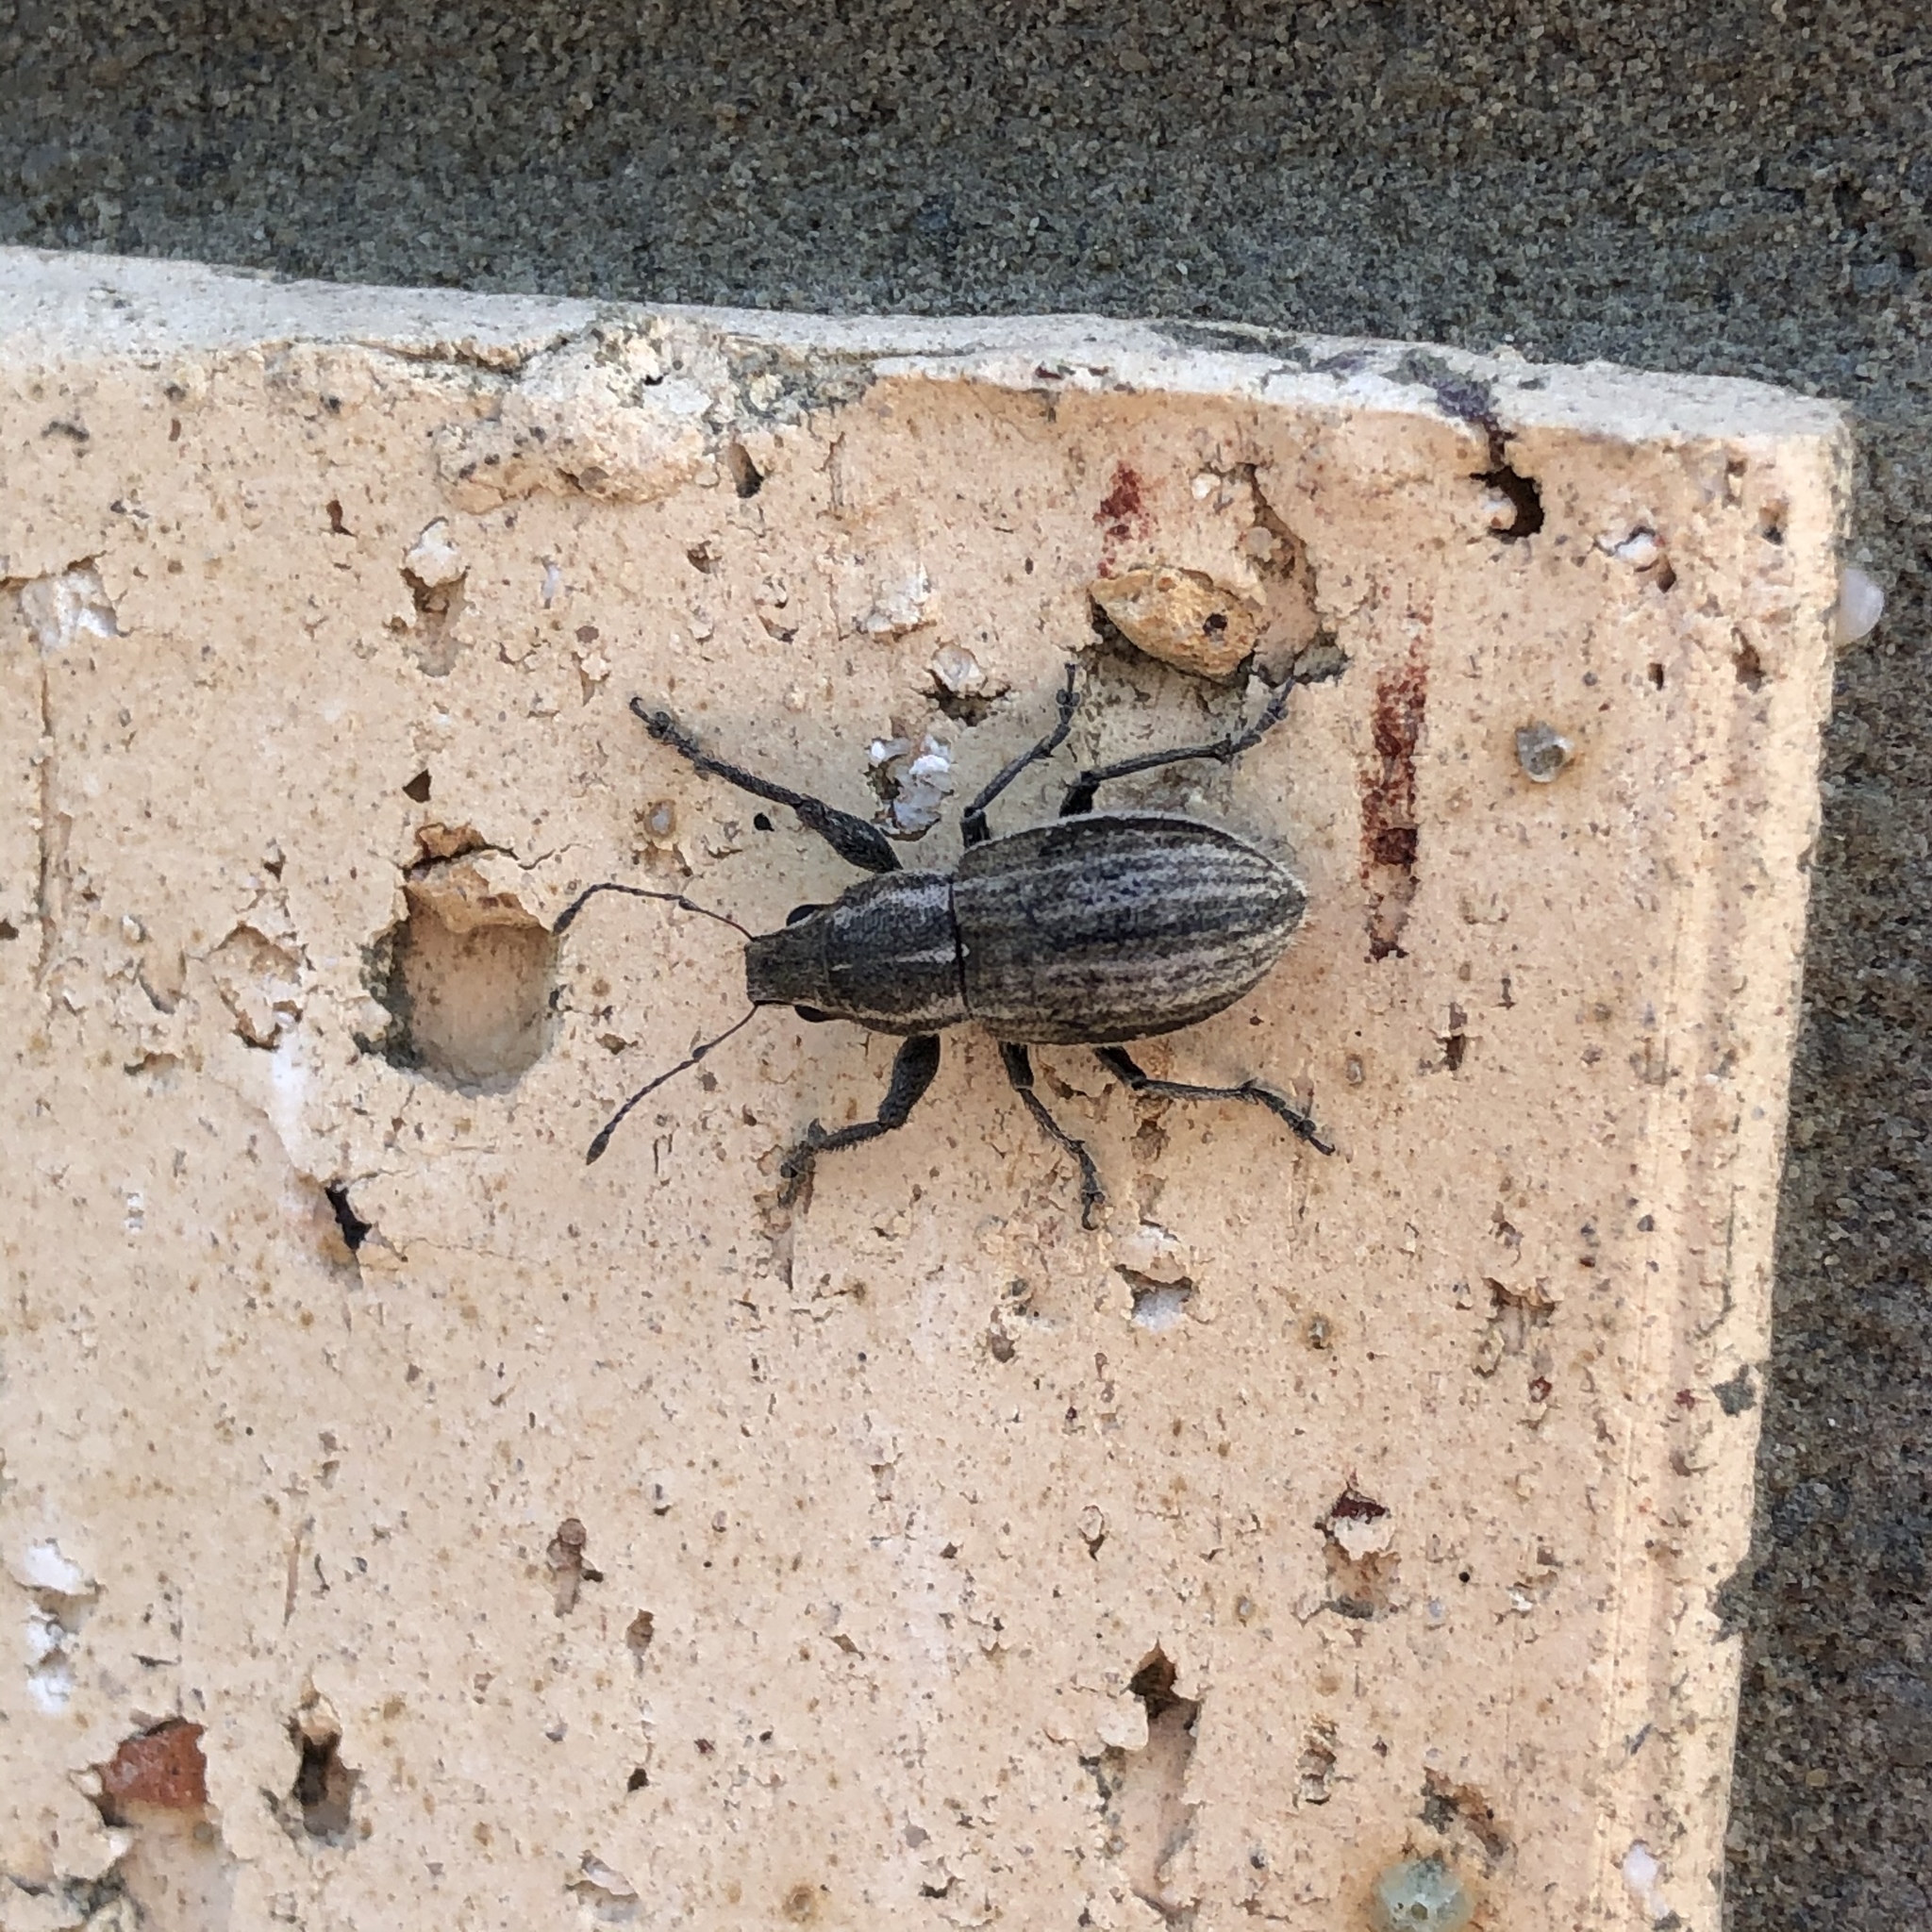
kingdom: Animalia
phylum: Arthropoda
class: Insecta
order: Coleoptera
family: Curculionidae
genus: Naupactus
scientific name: Naupactus leucoloma
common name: Whitefringed beetle
